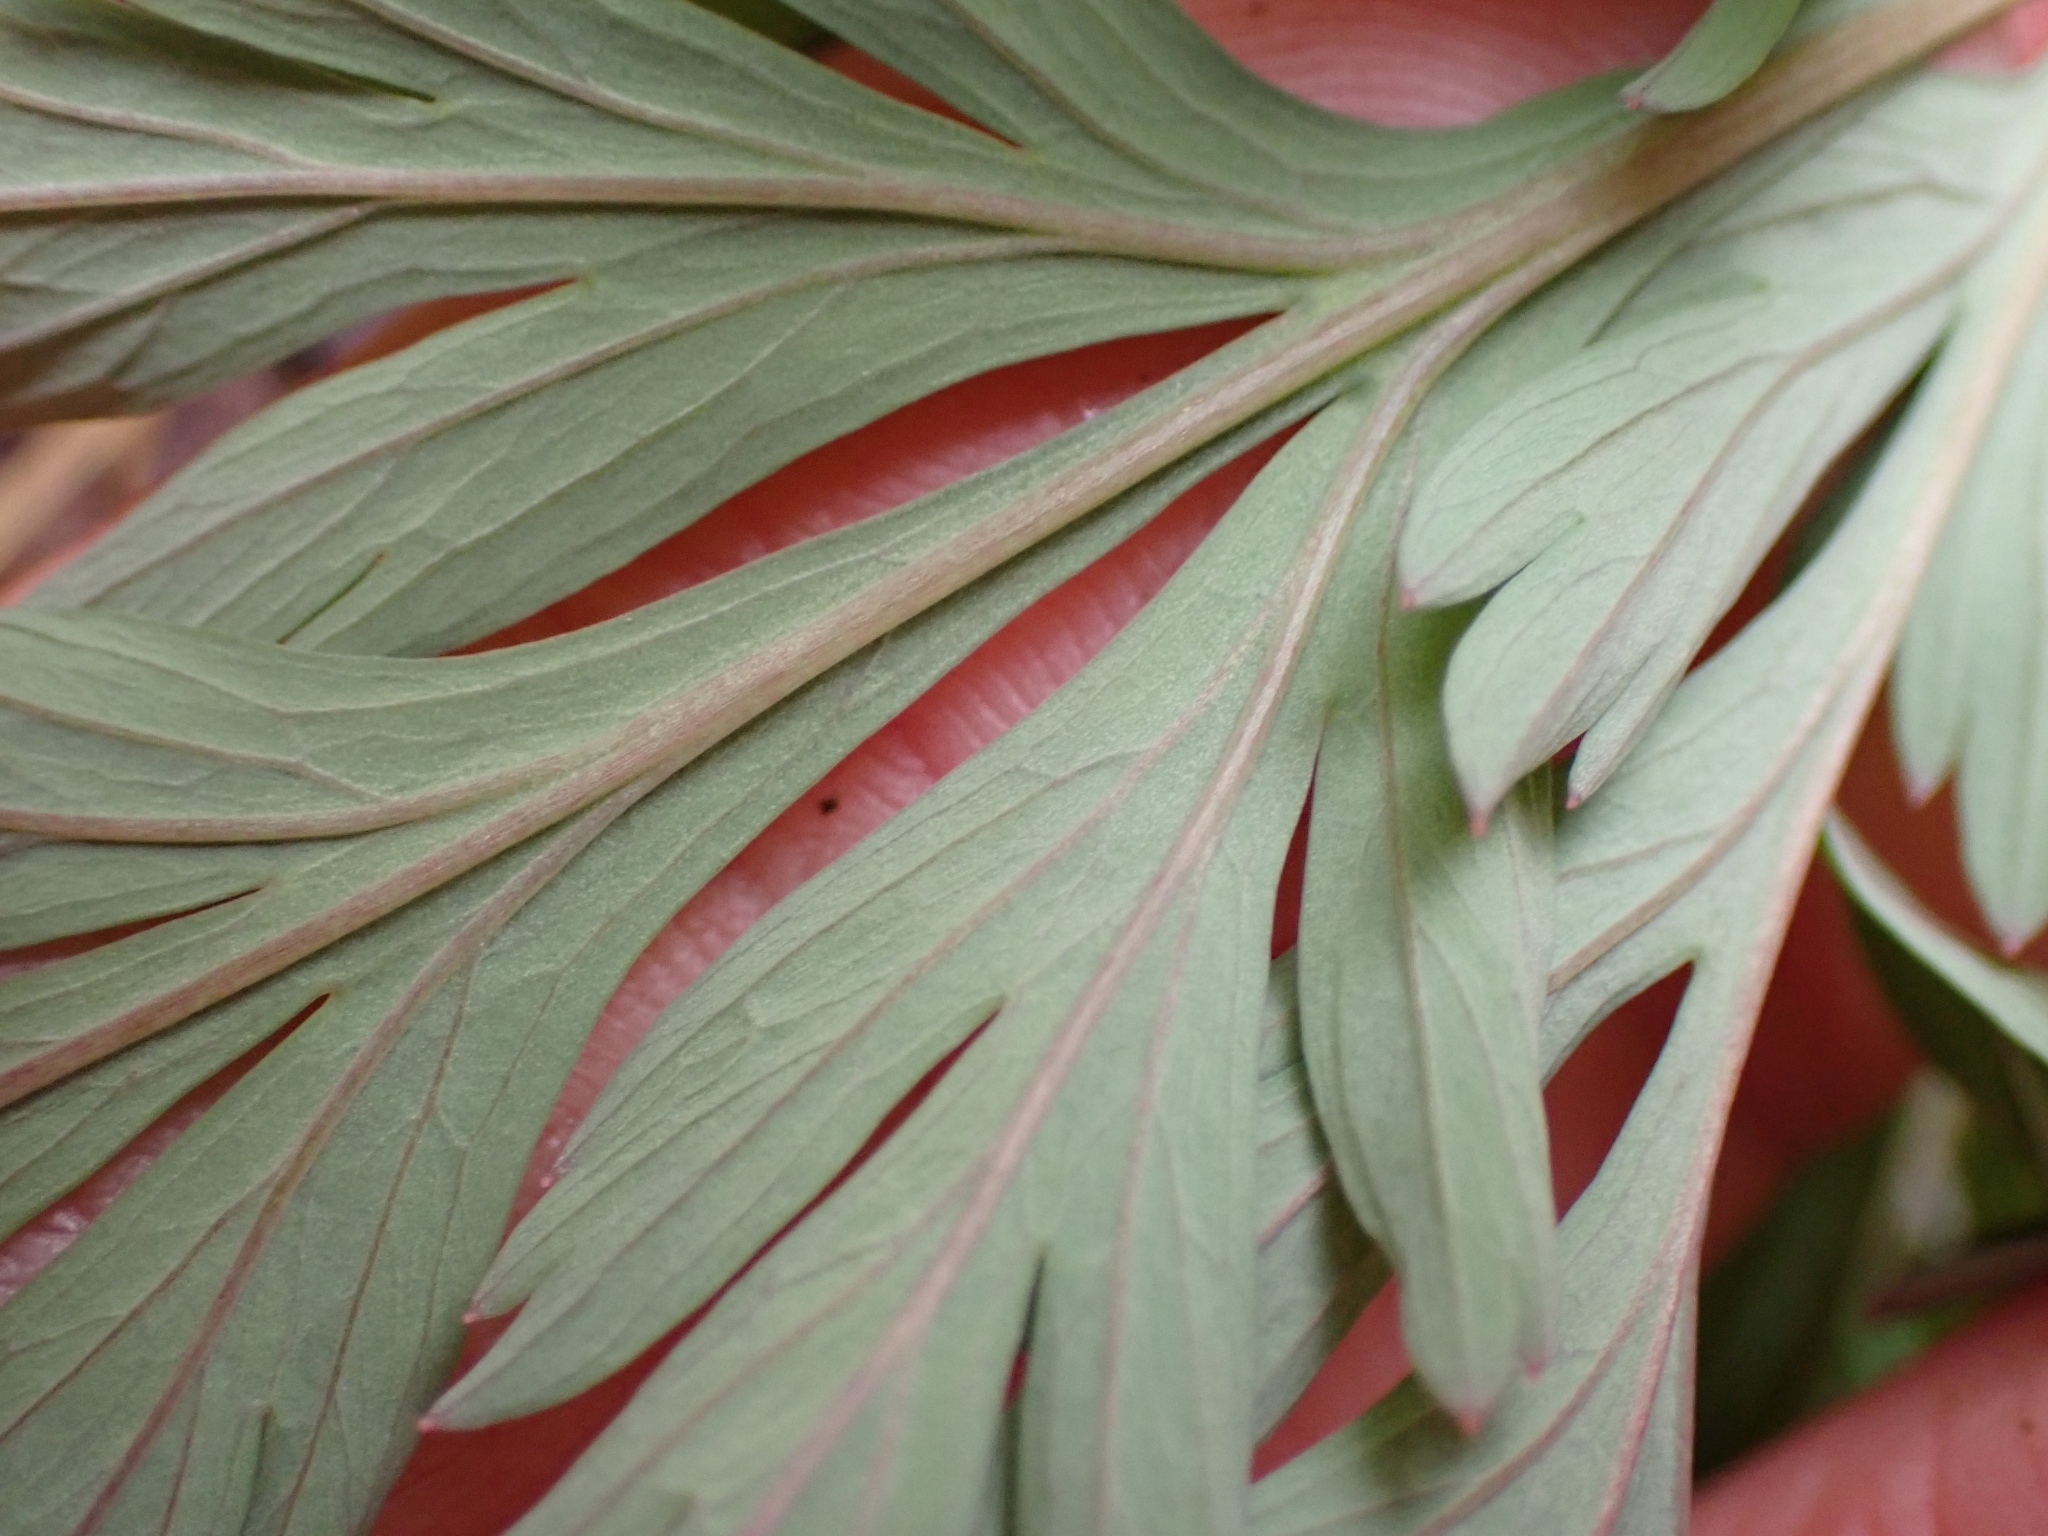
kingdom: Plantae
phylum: Tracheophyta
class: Magnoliopsida
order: Ranunculales
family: Papaveraceae
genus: Dicentra
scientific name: Dicentra formosa
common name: Bleeding-heart
